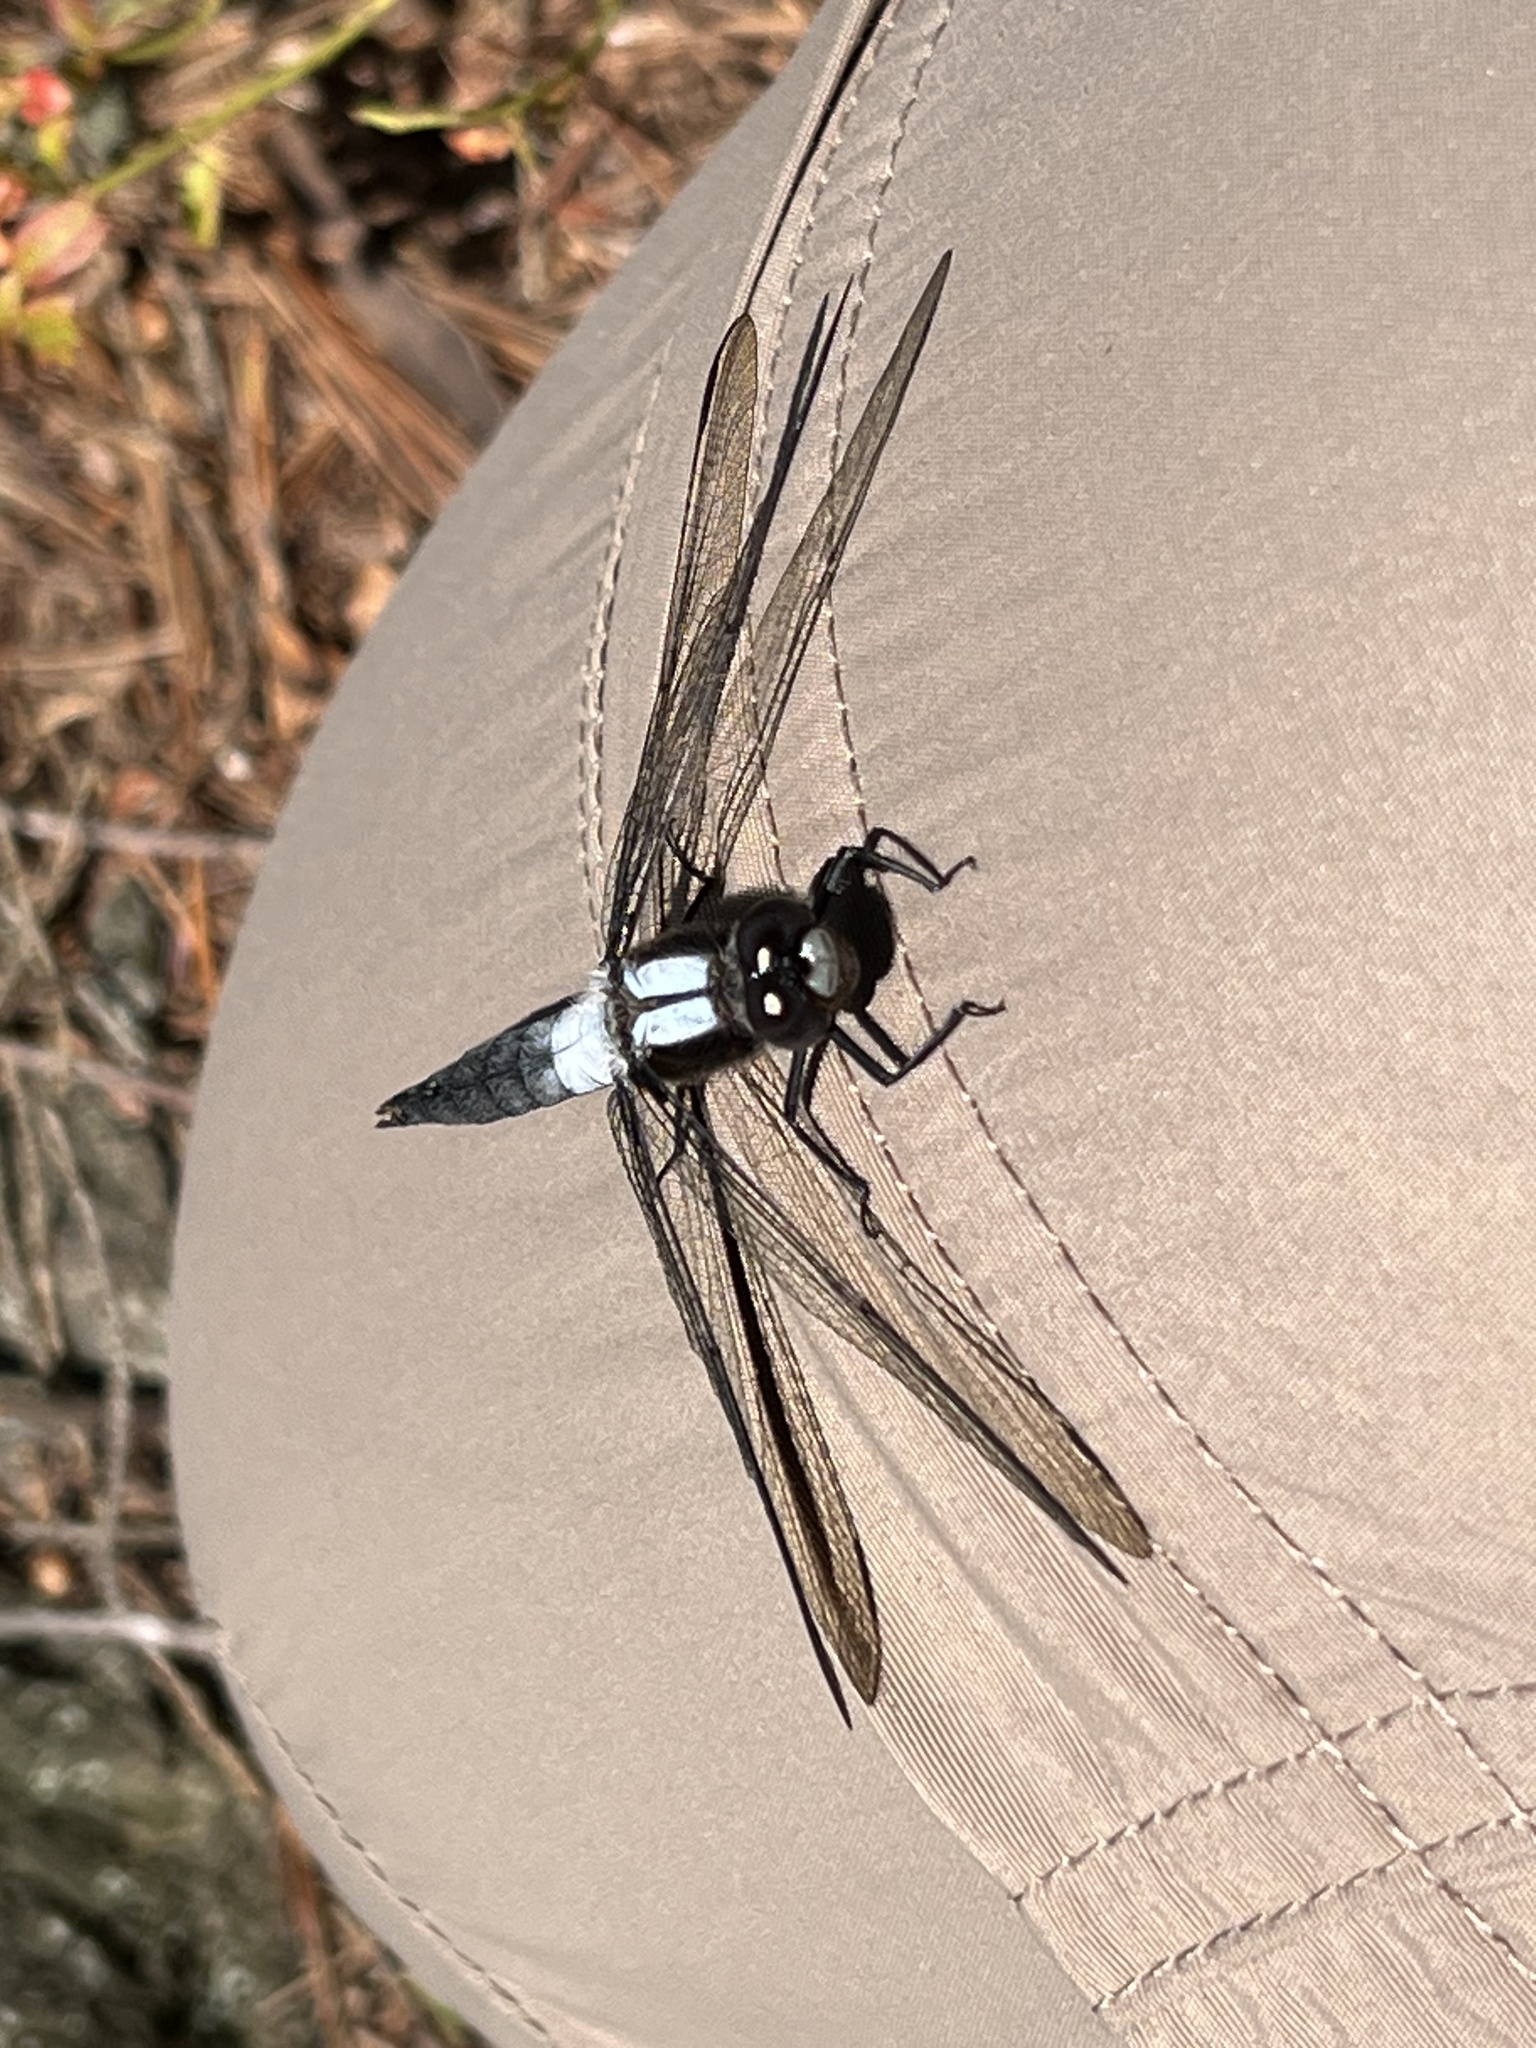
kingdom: Animalia
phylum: Arthropoda
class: Insecta
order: Odonata
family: Libellulidae
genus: Ladona
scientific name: Ladona julia
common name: Chalk-fronted corporal
